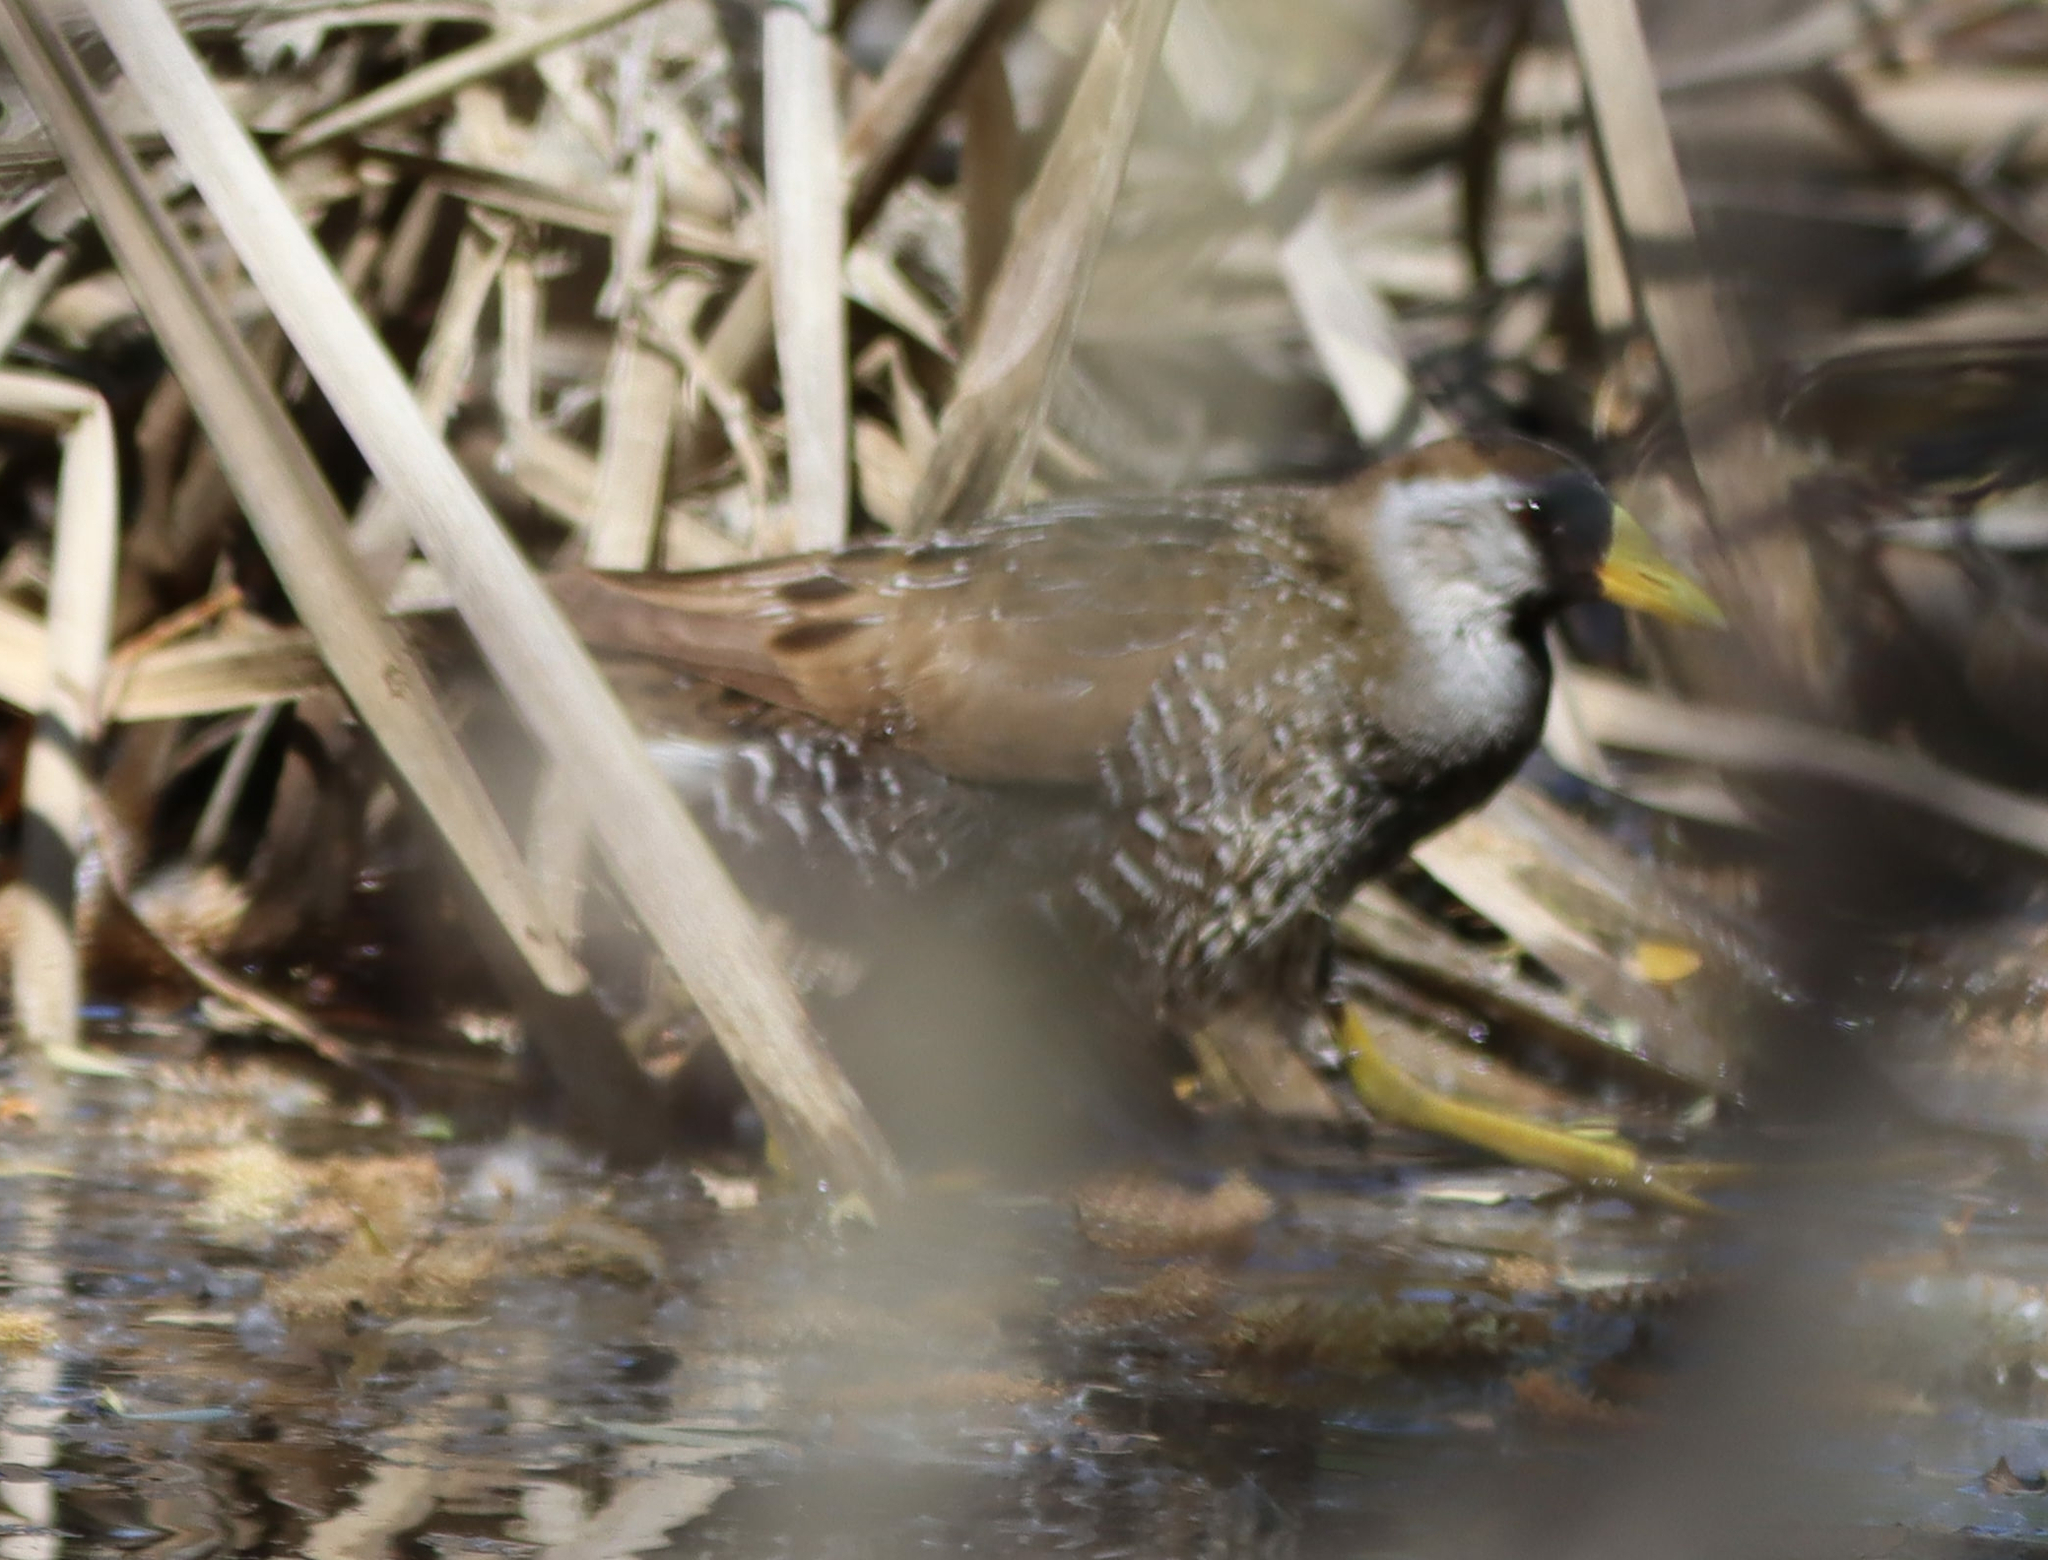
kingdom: Animalia
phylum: Chordata
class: Aves
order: Gruiformes
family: Rallidae
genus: Porzana
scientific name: Porzana carolina
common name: Sora
